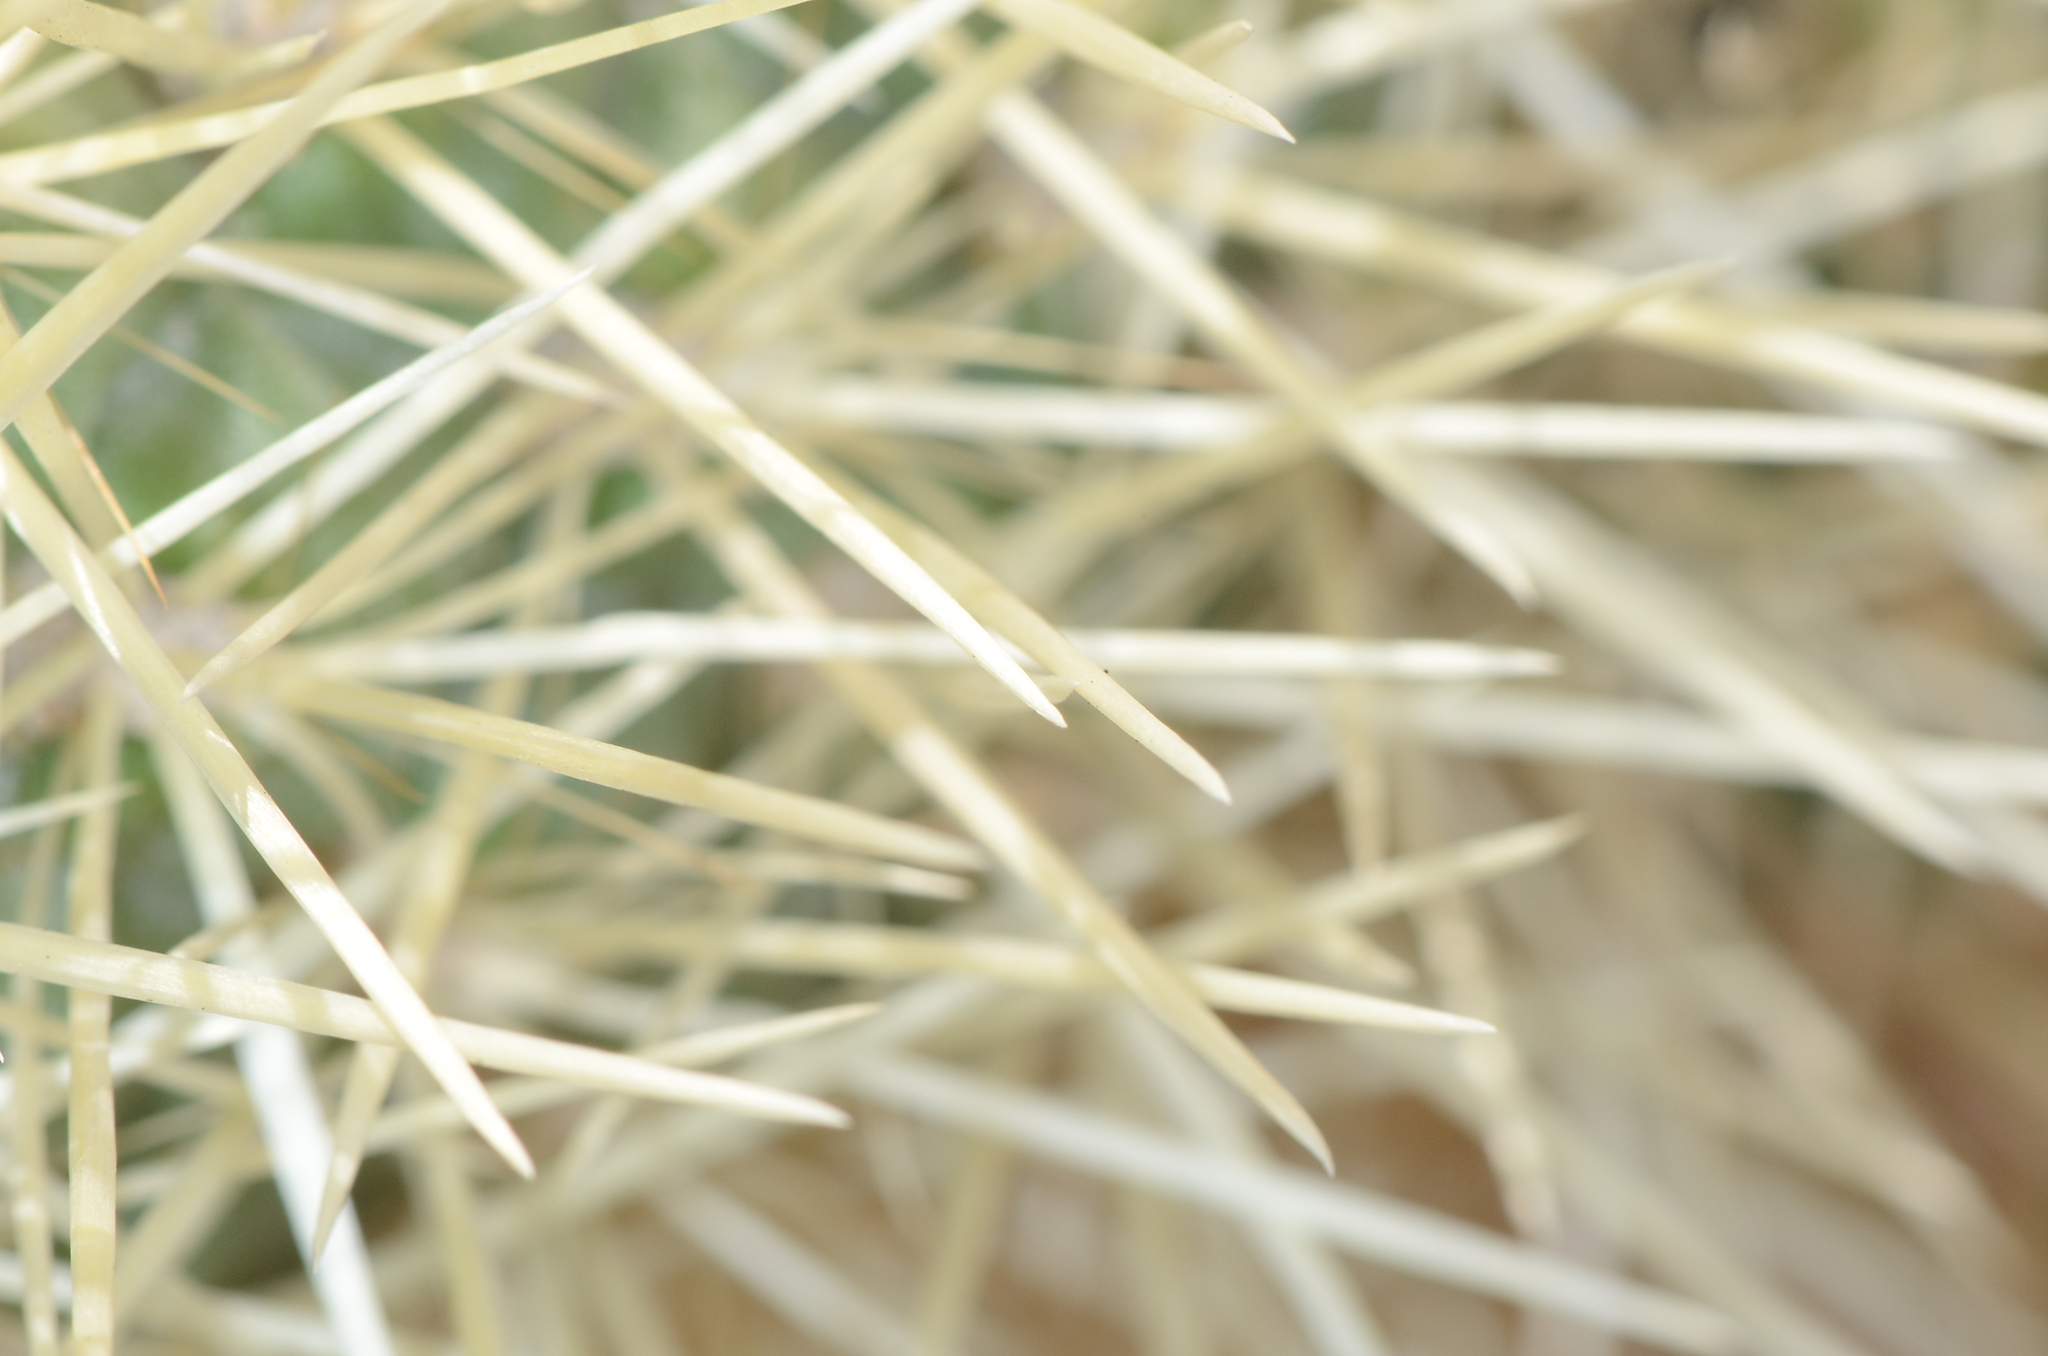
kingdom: Plantae
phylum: Tracheophyta
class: Magnoliopsida
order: Caryophyllales
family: Cactaceae
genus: Cylindropuntia
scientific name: Cylindropuntia fosbergii
